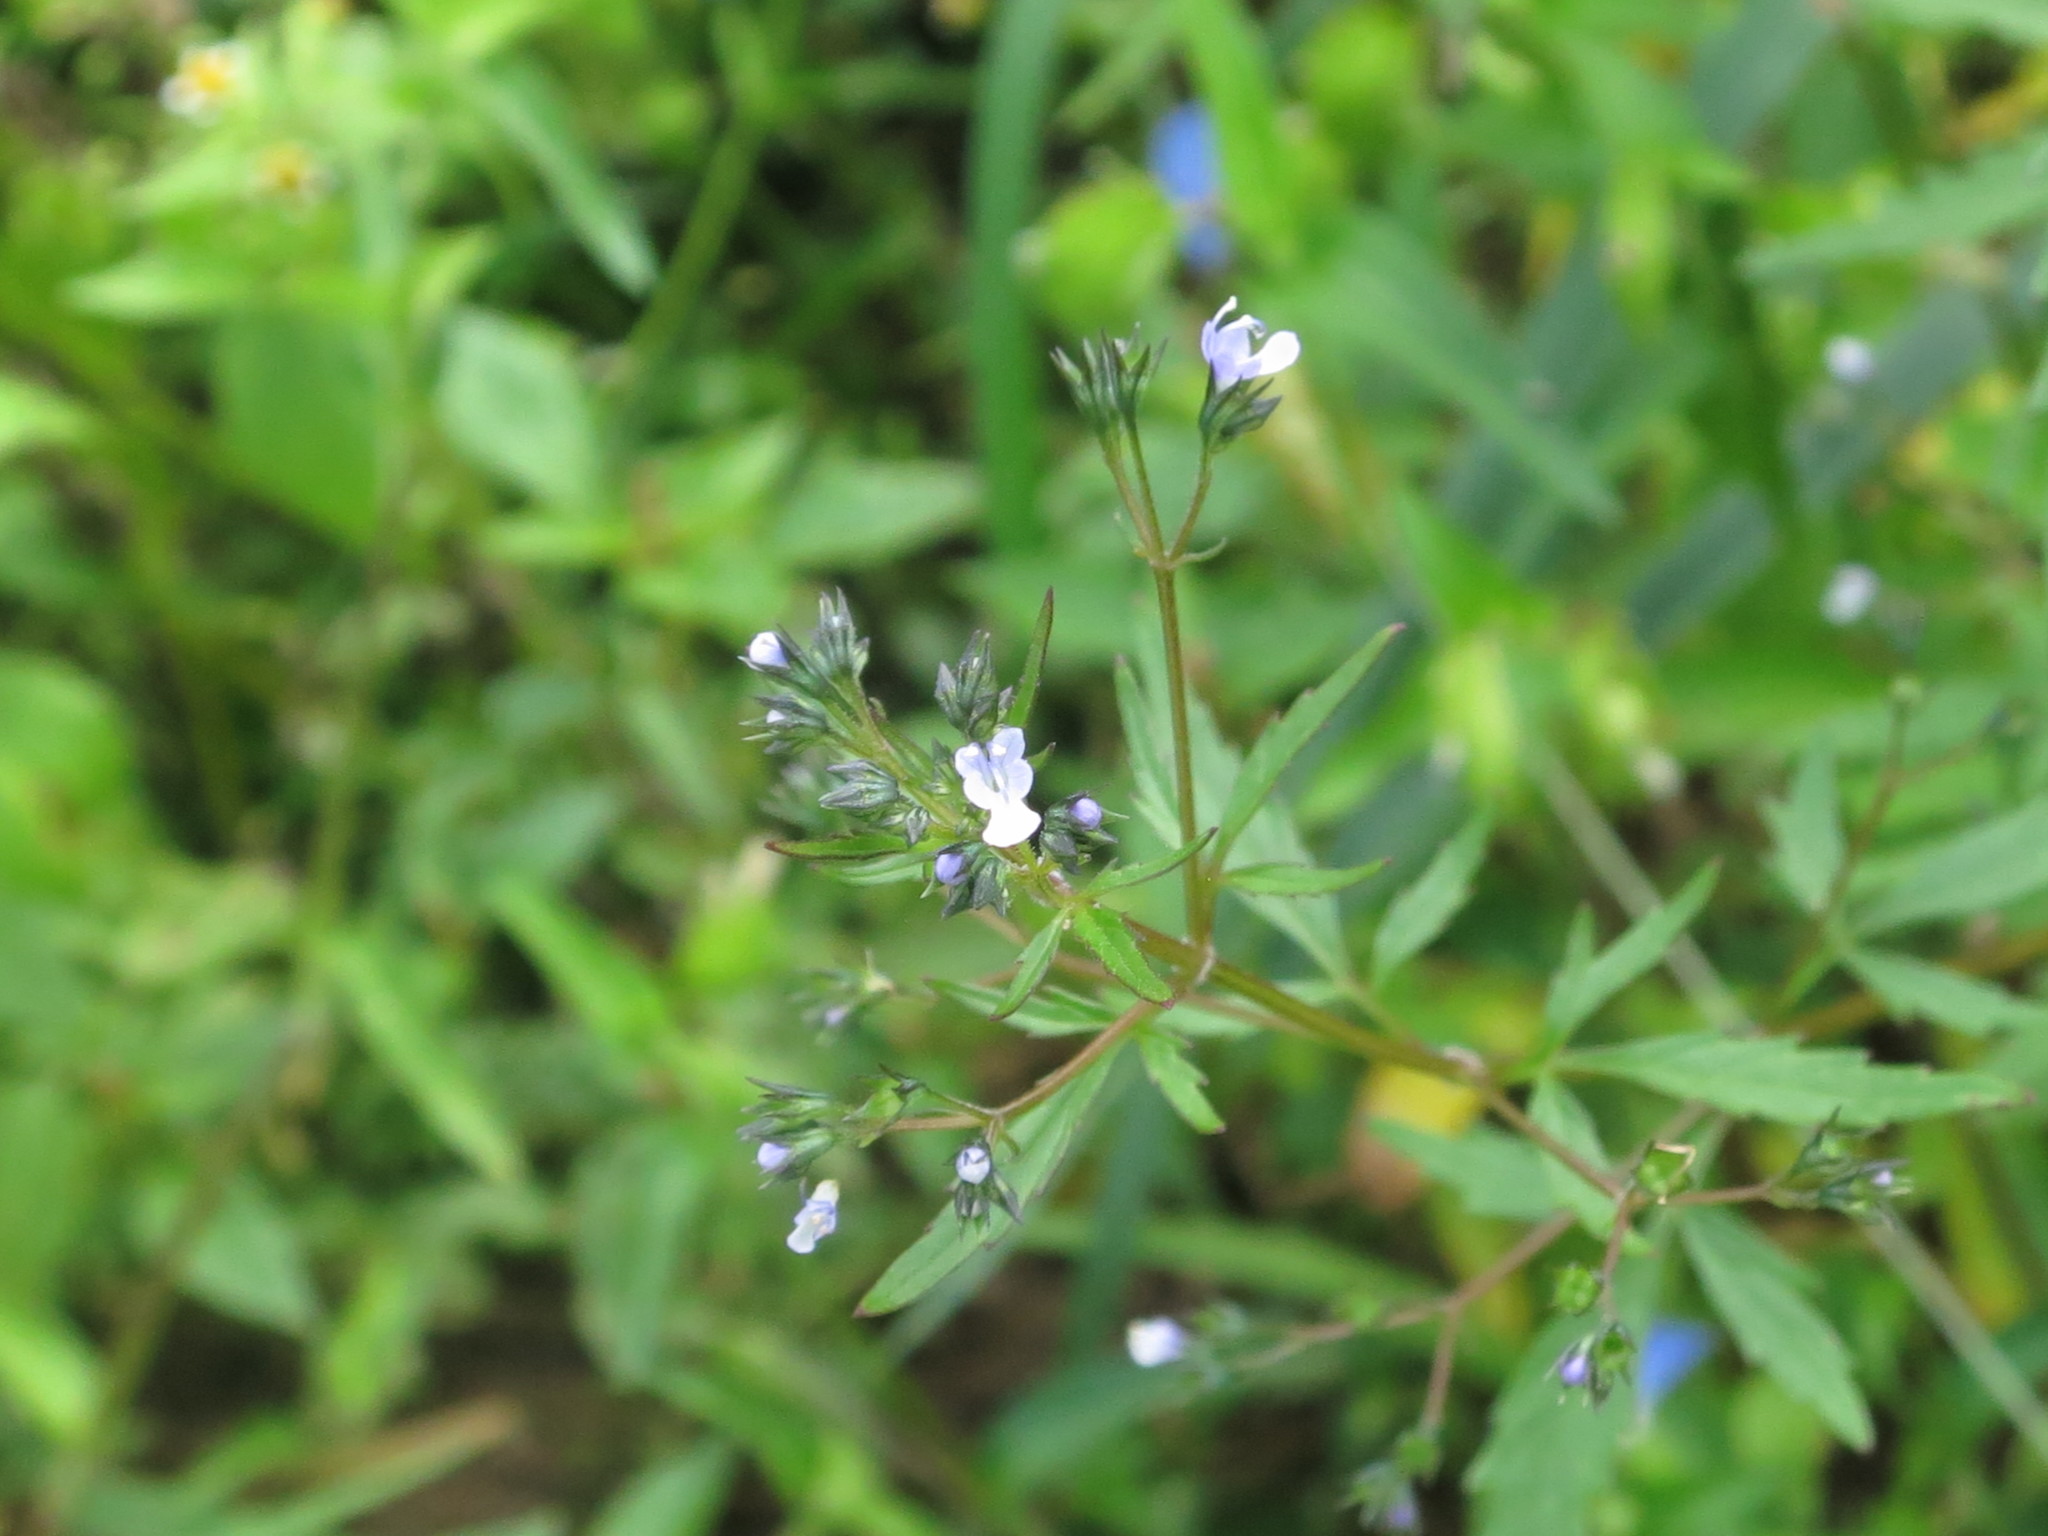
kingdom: Plantae
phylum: Tracheophyta
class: Magnoliopsida
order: Lamiales
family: Lamiaceae
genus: Amethystea
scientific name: Amethystea caerulea
